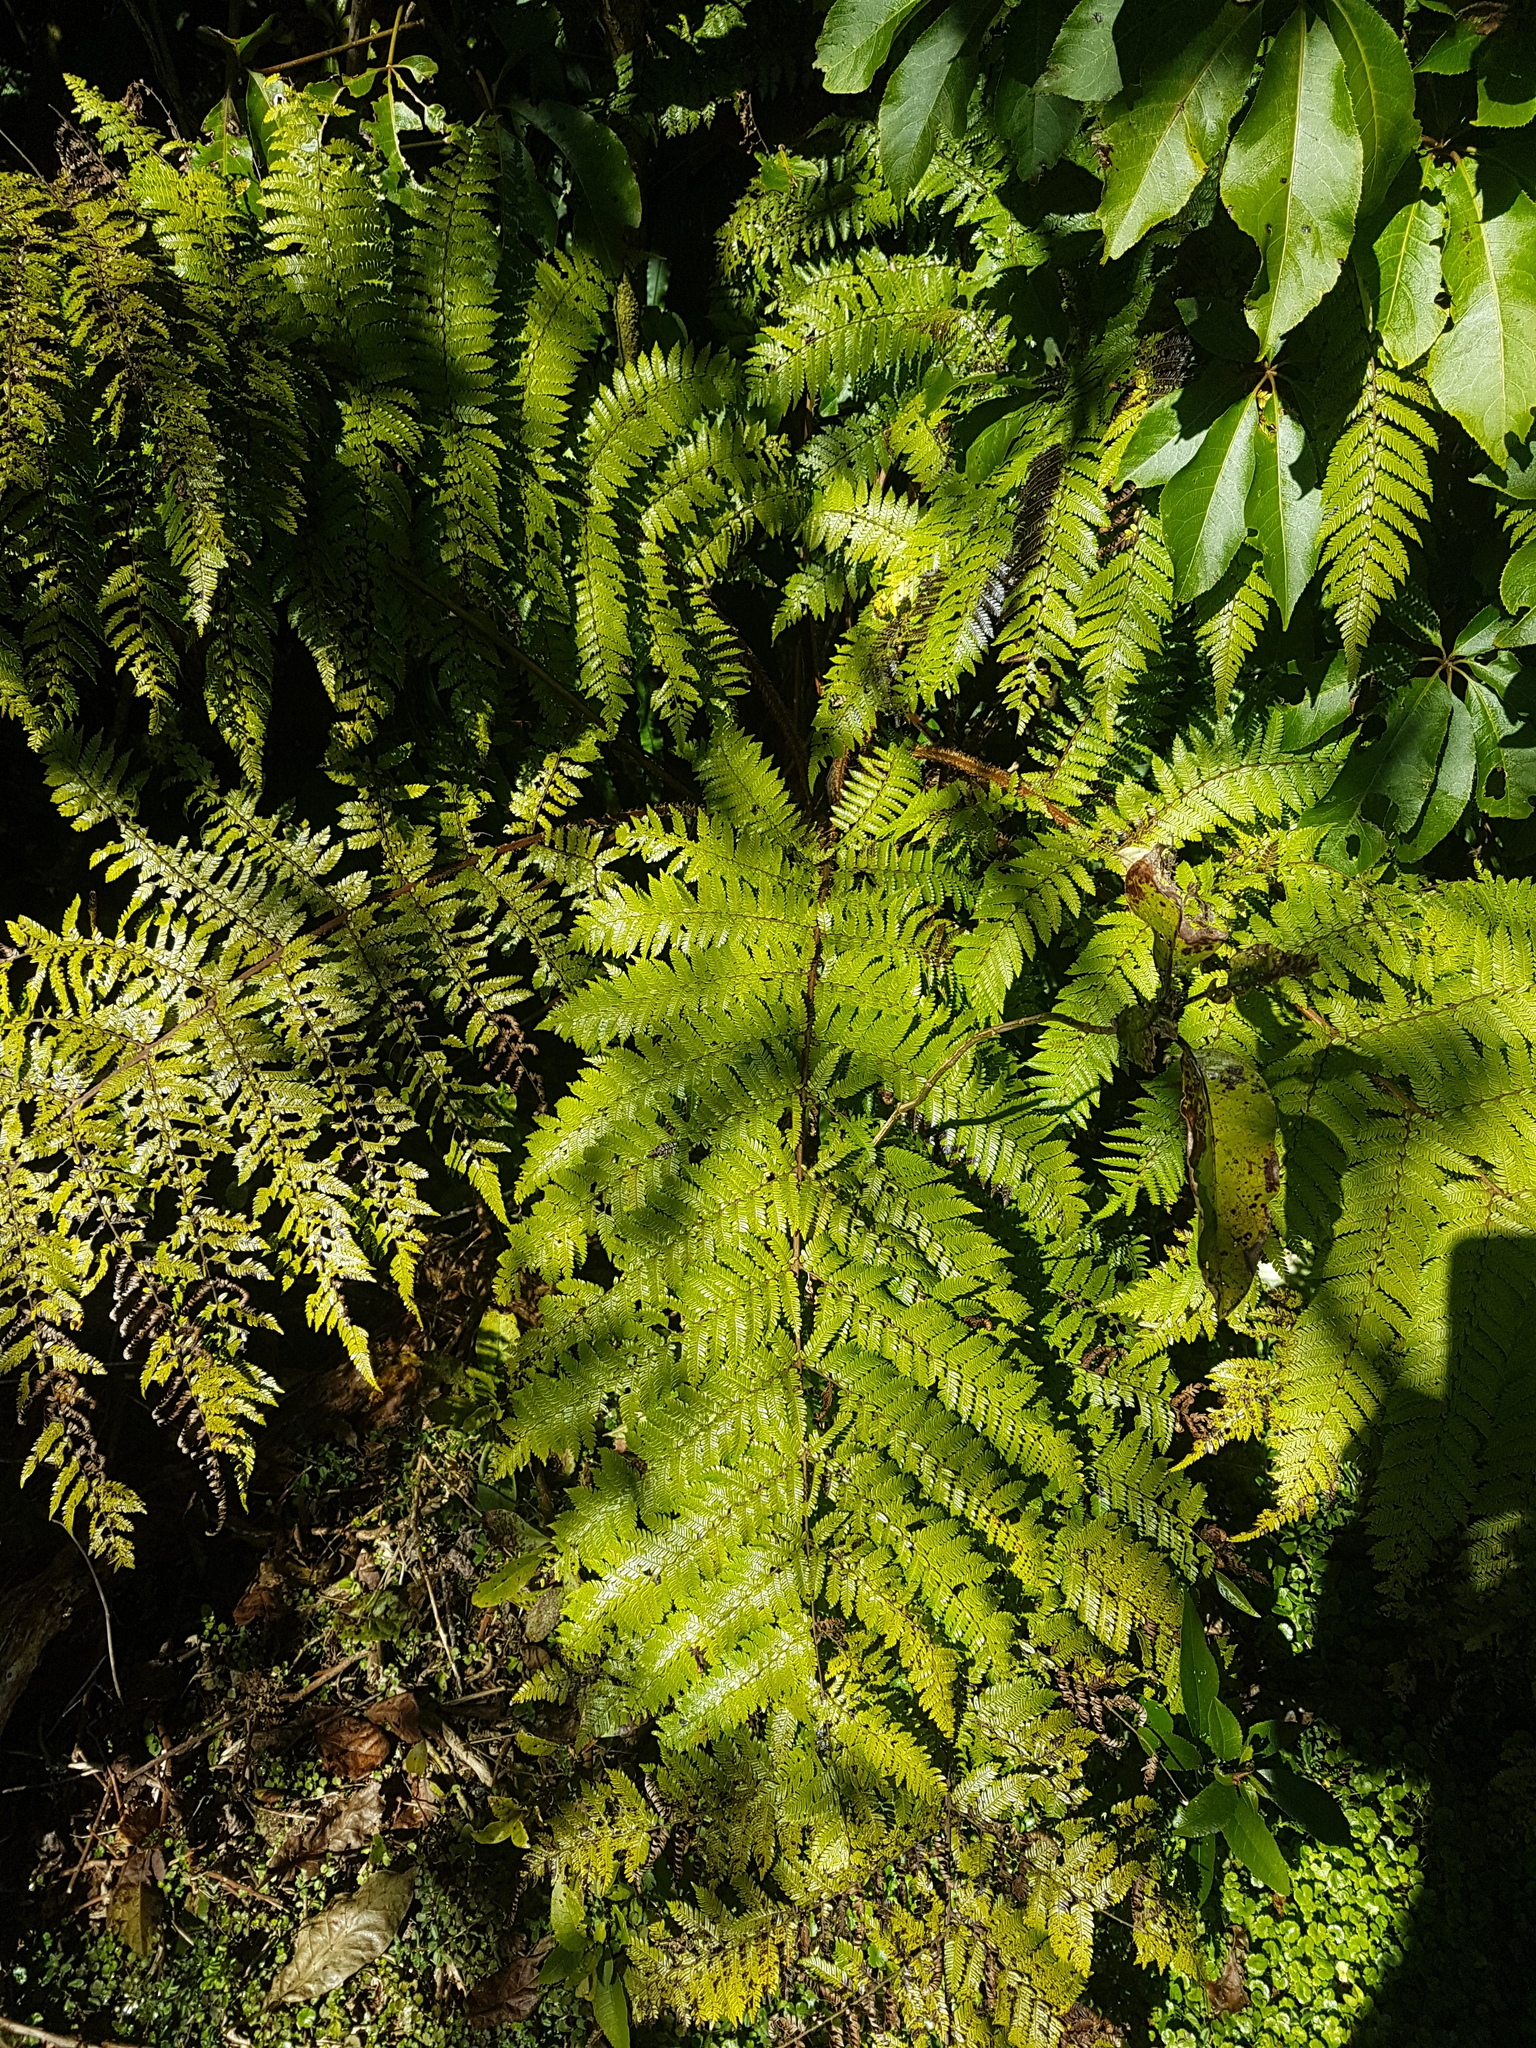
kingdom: Plantae
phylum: Tracheophyta
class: Polypodiopsida
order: Cyatheales
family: Cyatheaceae
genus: Alsophila
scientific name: Alsophila smithii
